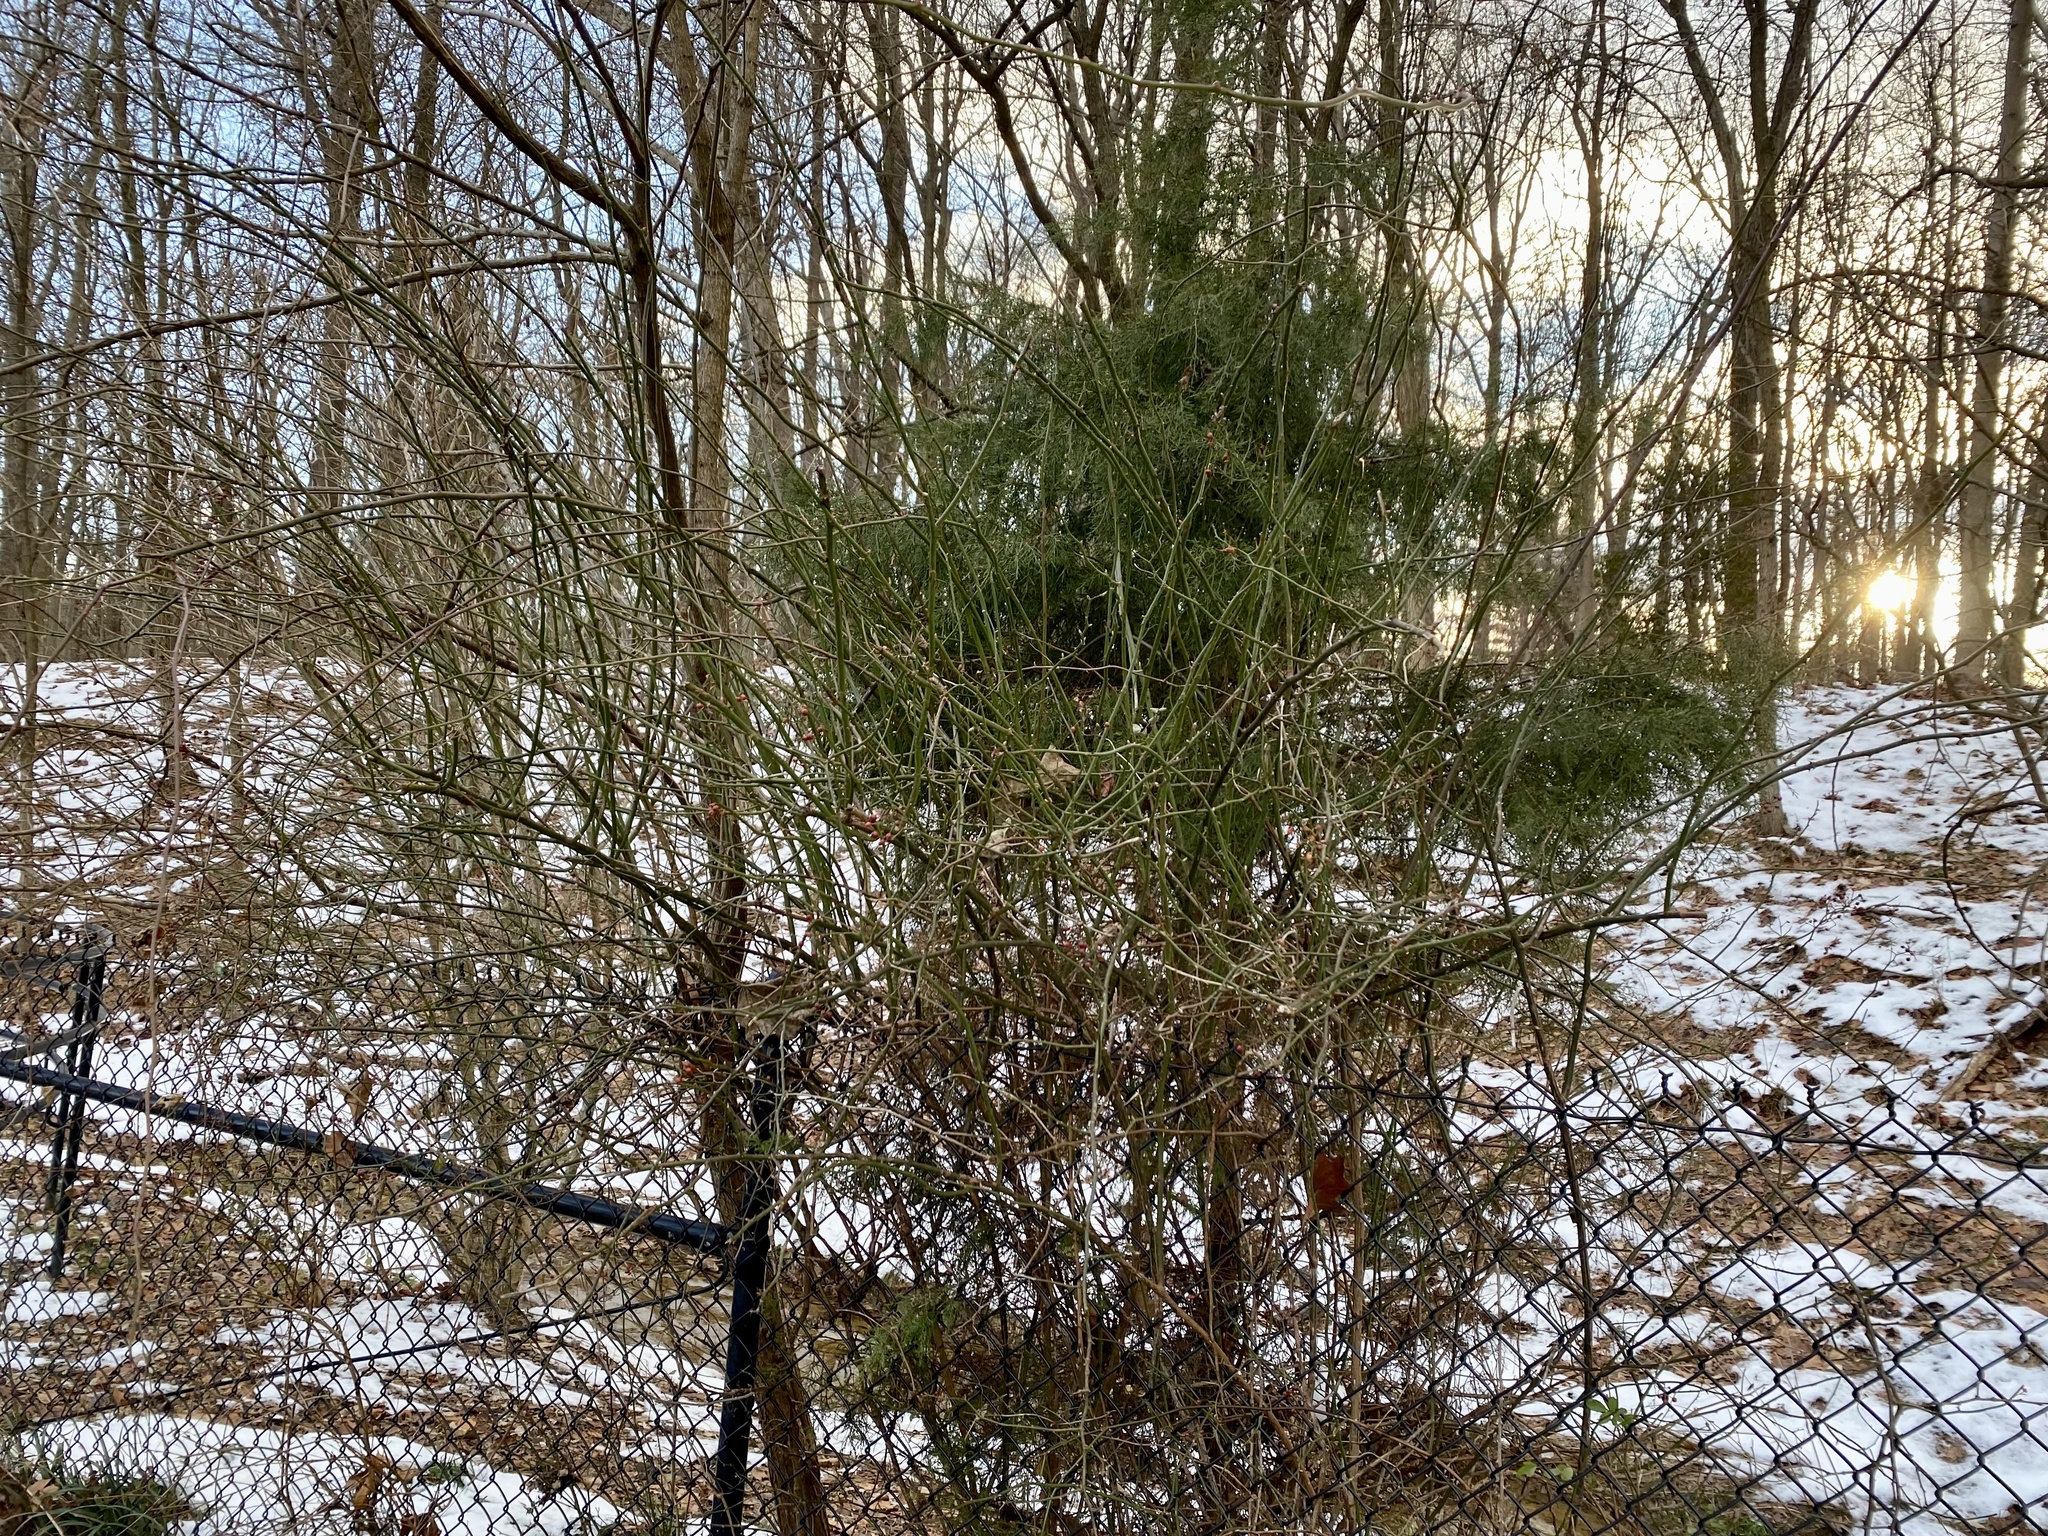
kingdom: Plantae
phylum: Tracheophyta
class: Magnoliopsida
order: Rosales
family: Rosaceae
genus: Rosa
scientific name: Rosa multiflora
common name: Multiflora rose
